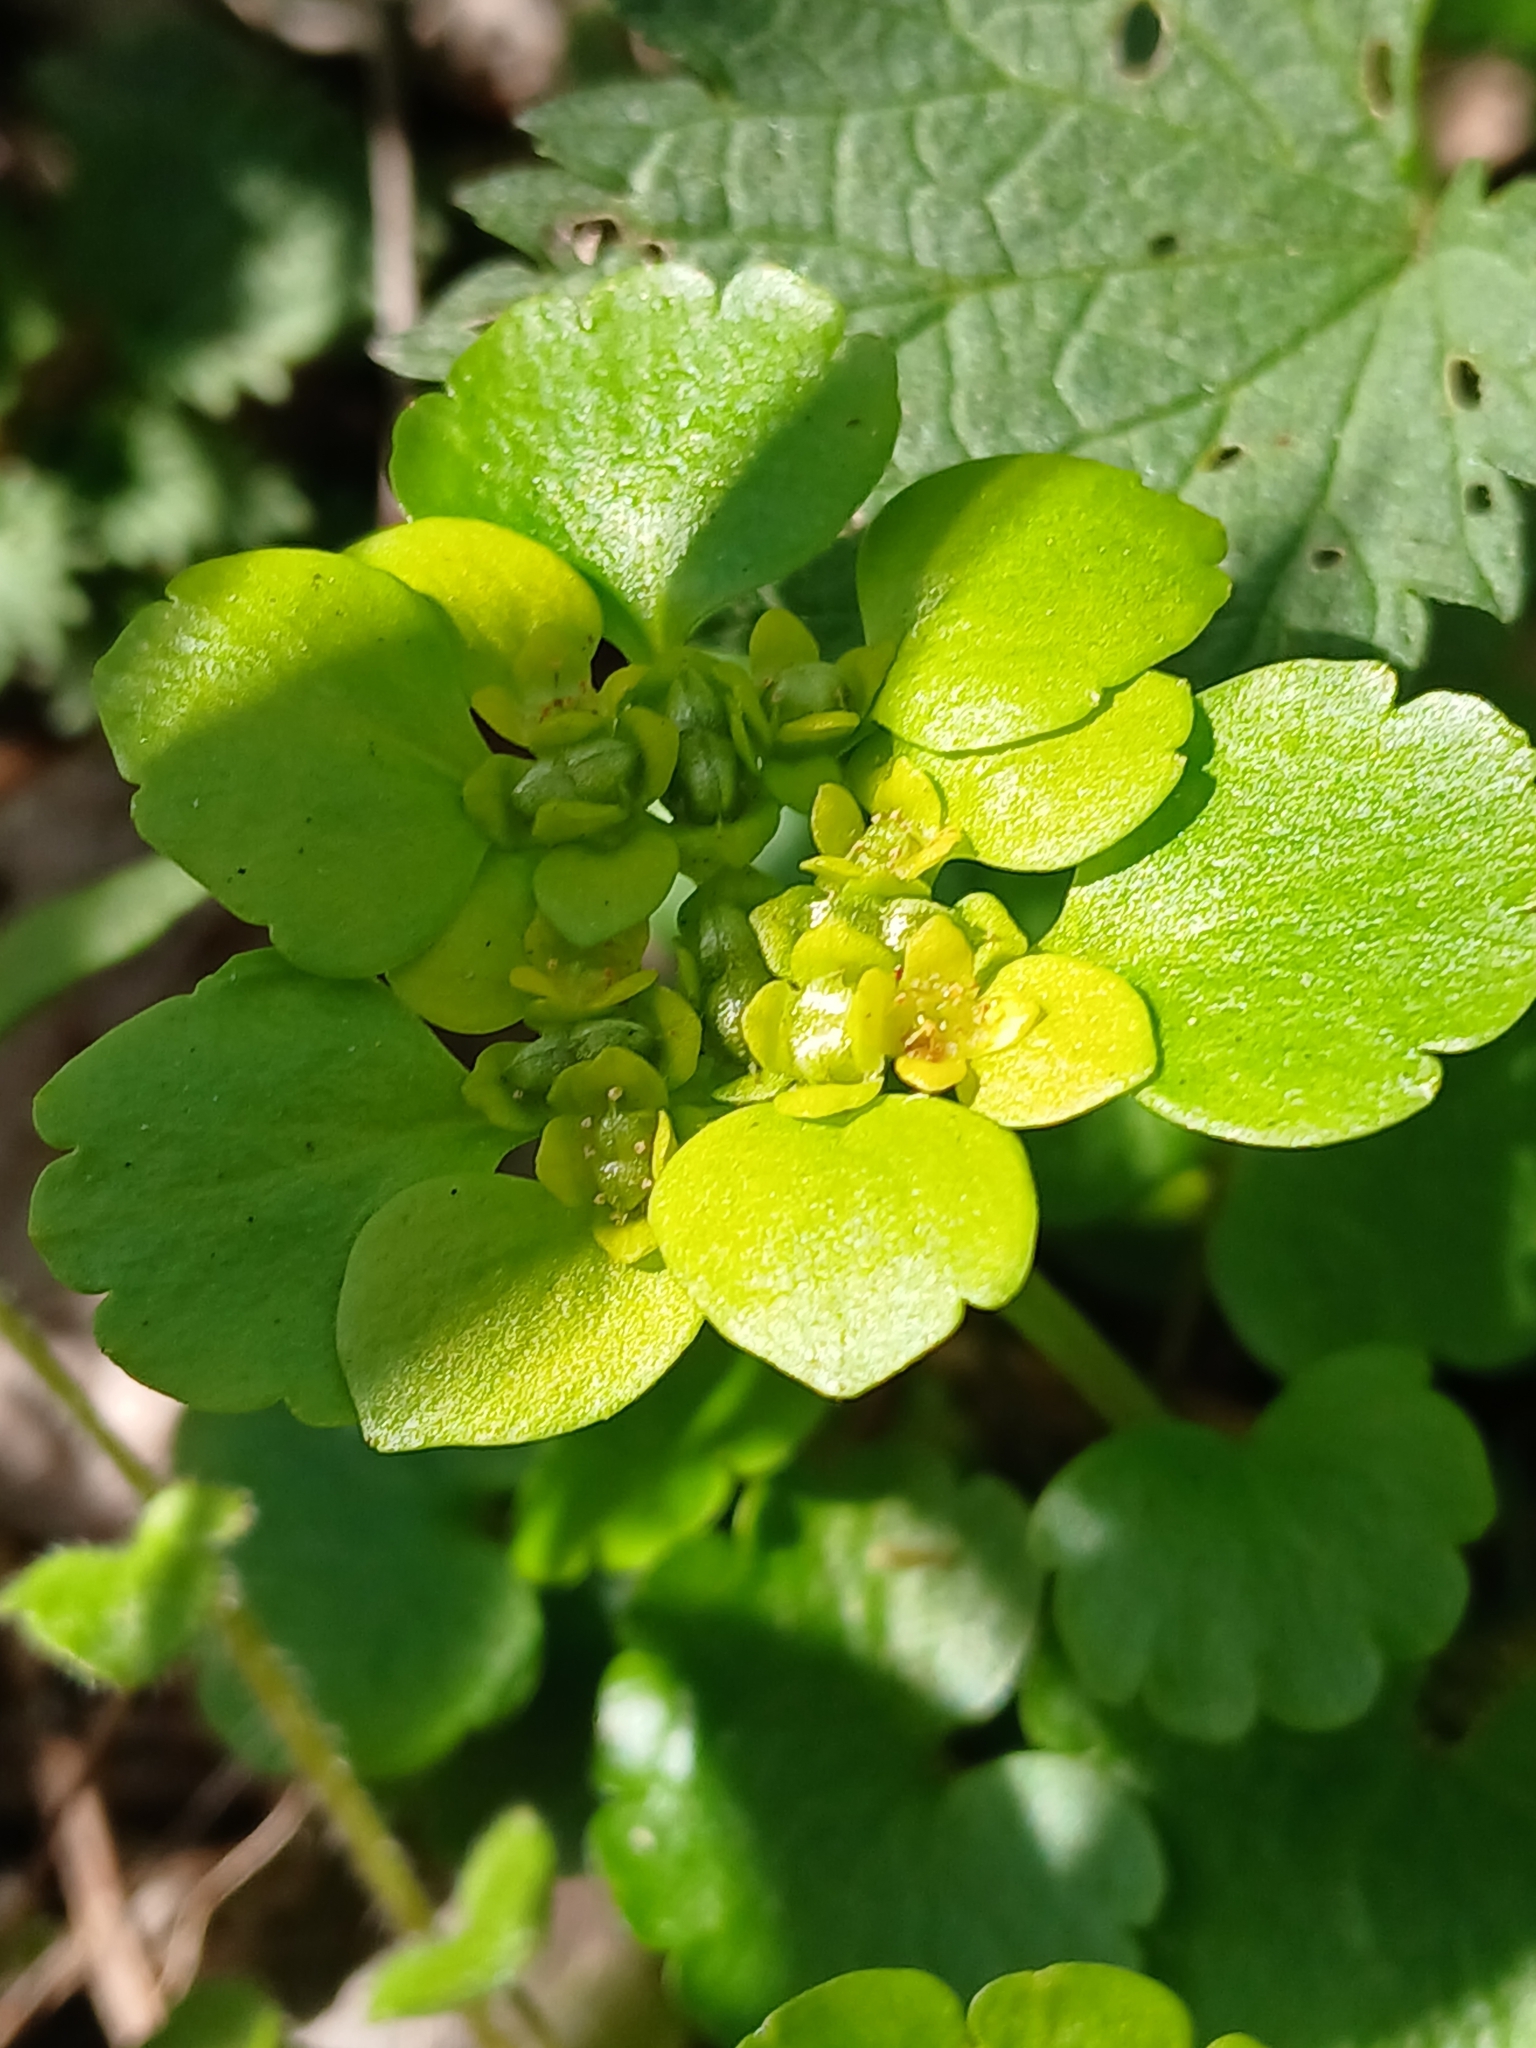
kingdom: Plantae
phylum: Tracheophyta
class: Magnoliopsida
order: Saxifragales
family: Saxifragaceae
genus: Chrysosplenium
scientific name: Chrysosplenium alternifolium
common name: Alternate-leaved golden-saxifrage
